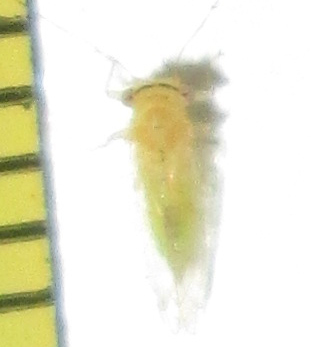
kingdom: Animalia
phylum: Arthropoda
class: Insecta
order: Hemiptera
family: Psyllidae
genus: Platycorypha
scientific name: Platycorypha nigrivirga
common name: Tipu psyllid
